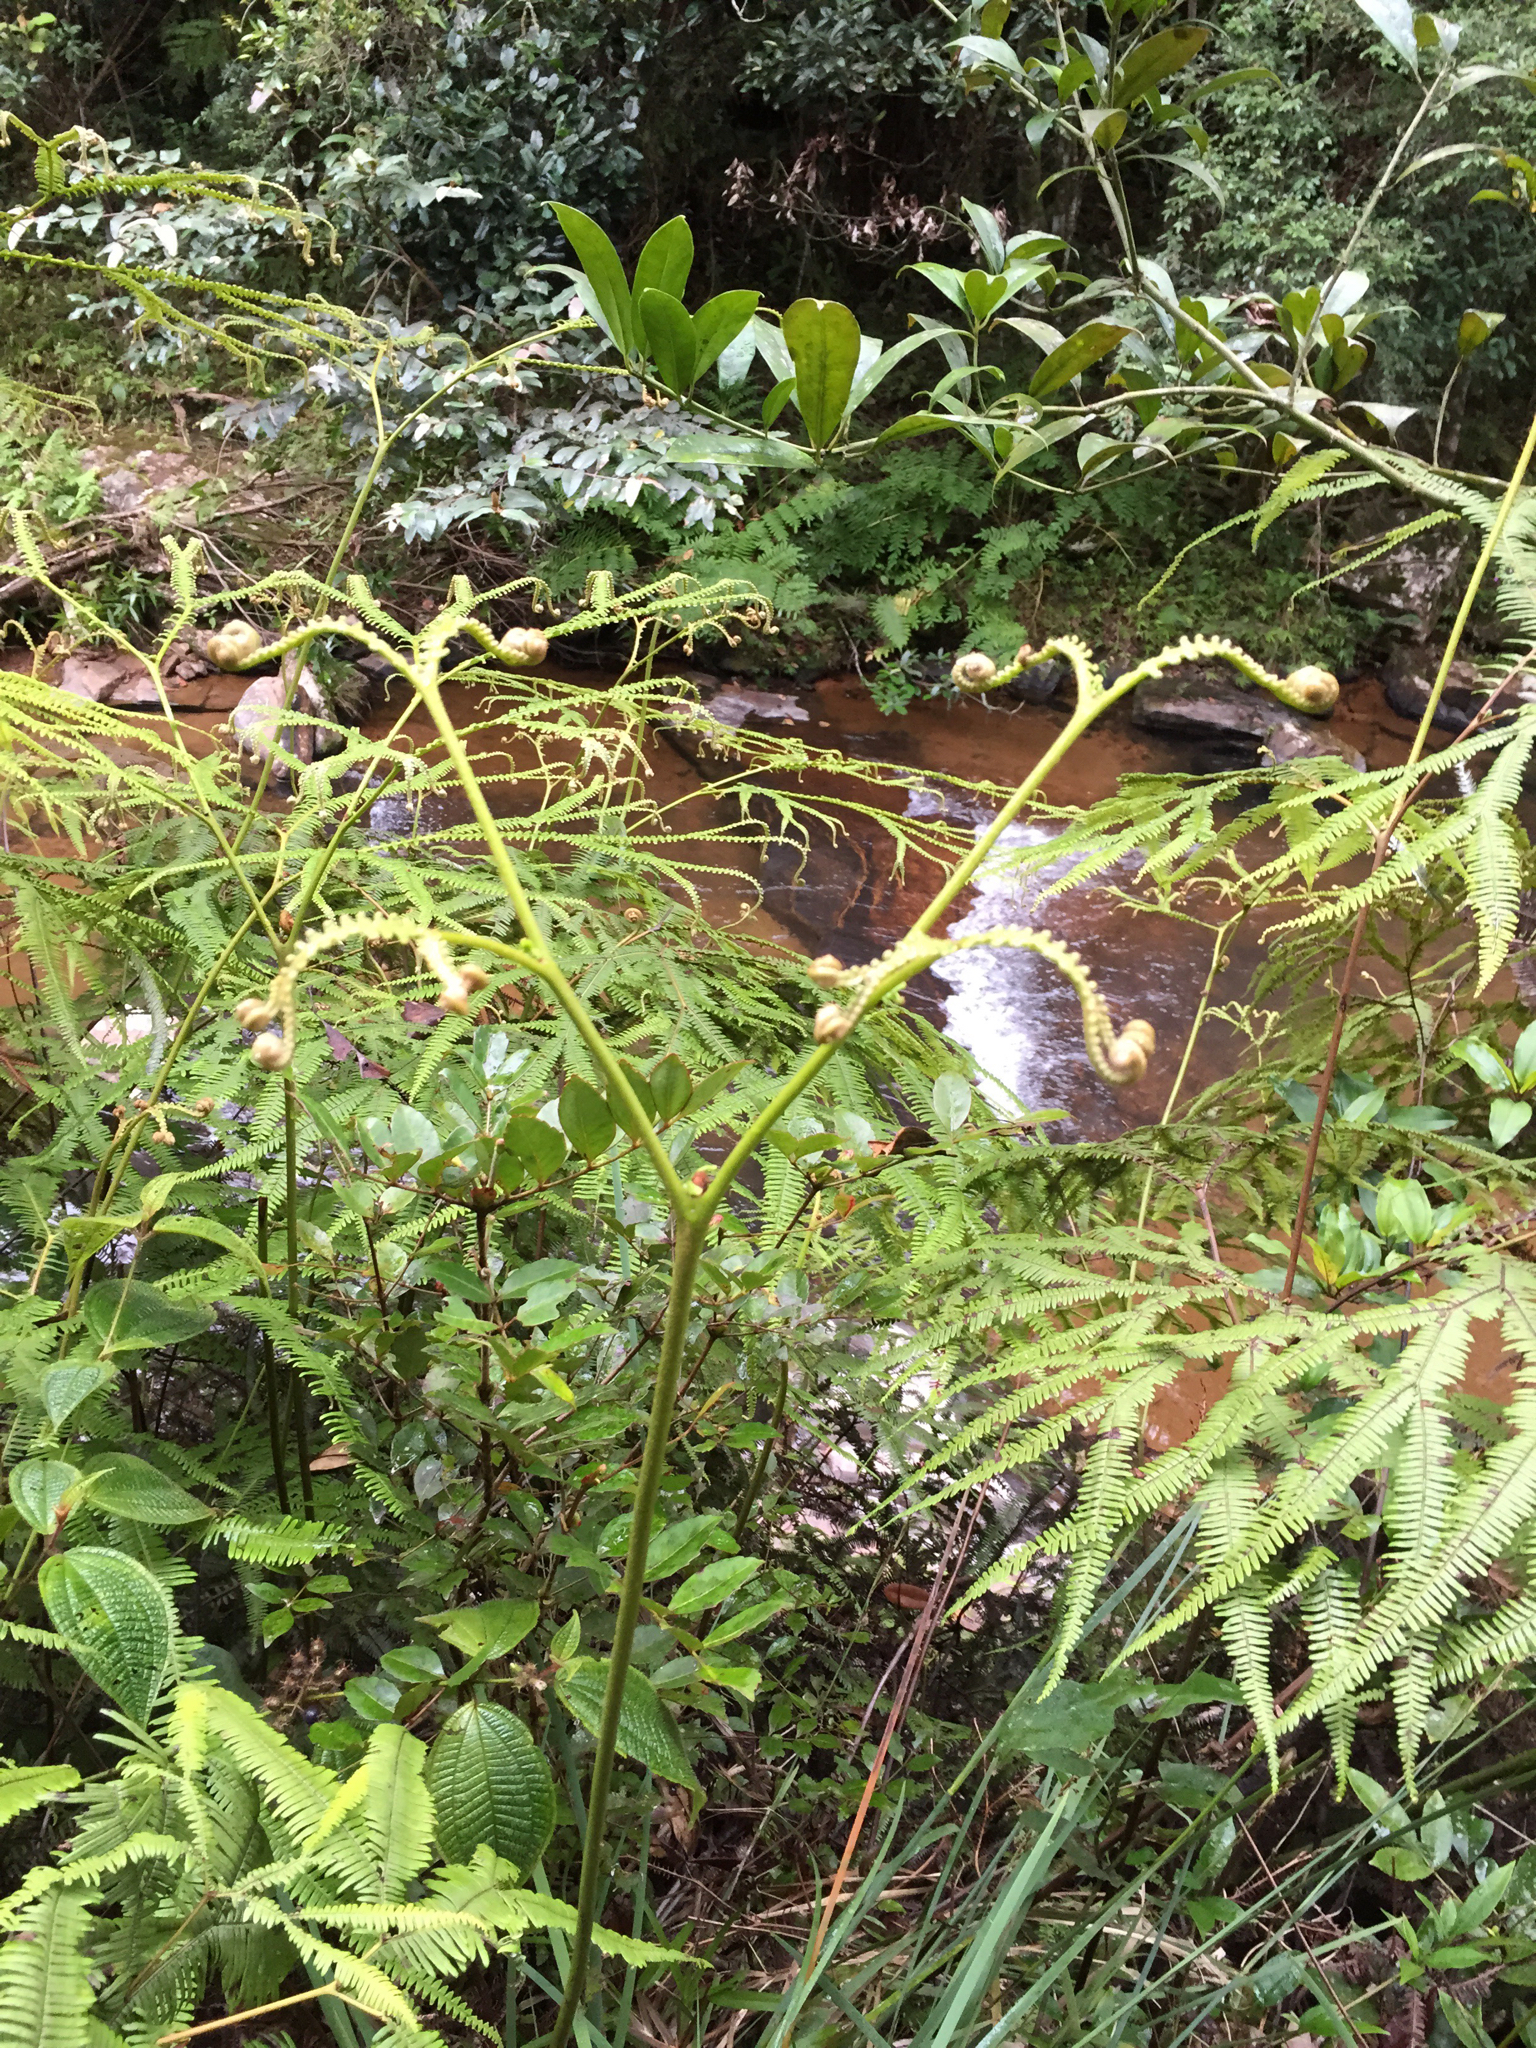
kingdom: Plantae
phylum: Tracheophyta
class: Polypodiopsida
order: Gleicheniales
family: Gleicheniaceae
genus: Sticherus
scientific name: Sticherus flagellaris
